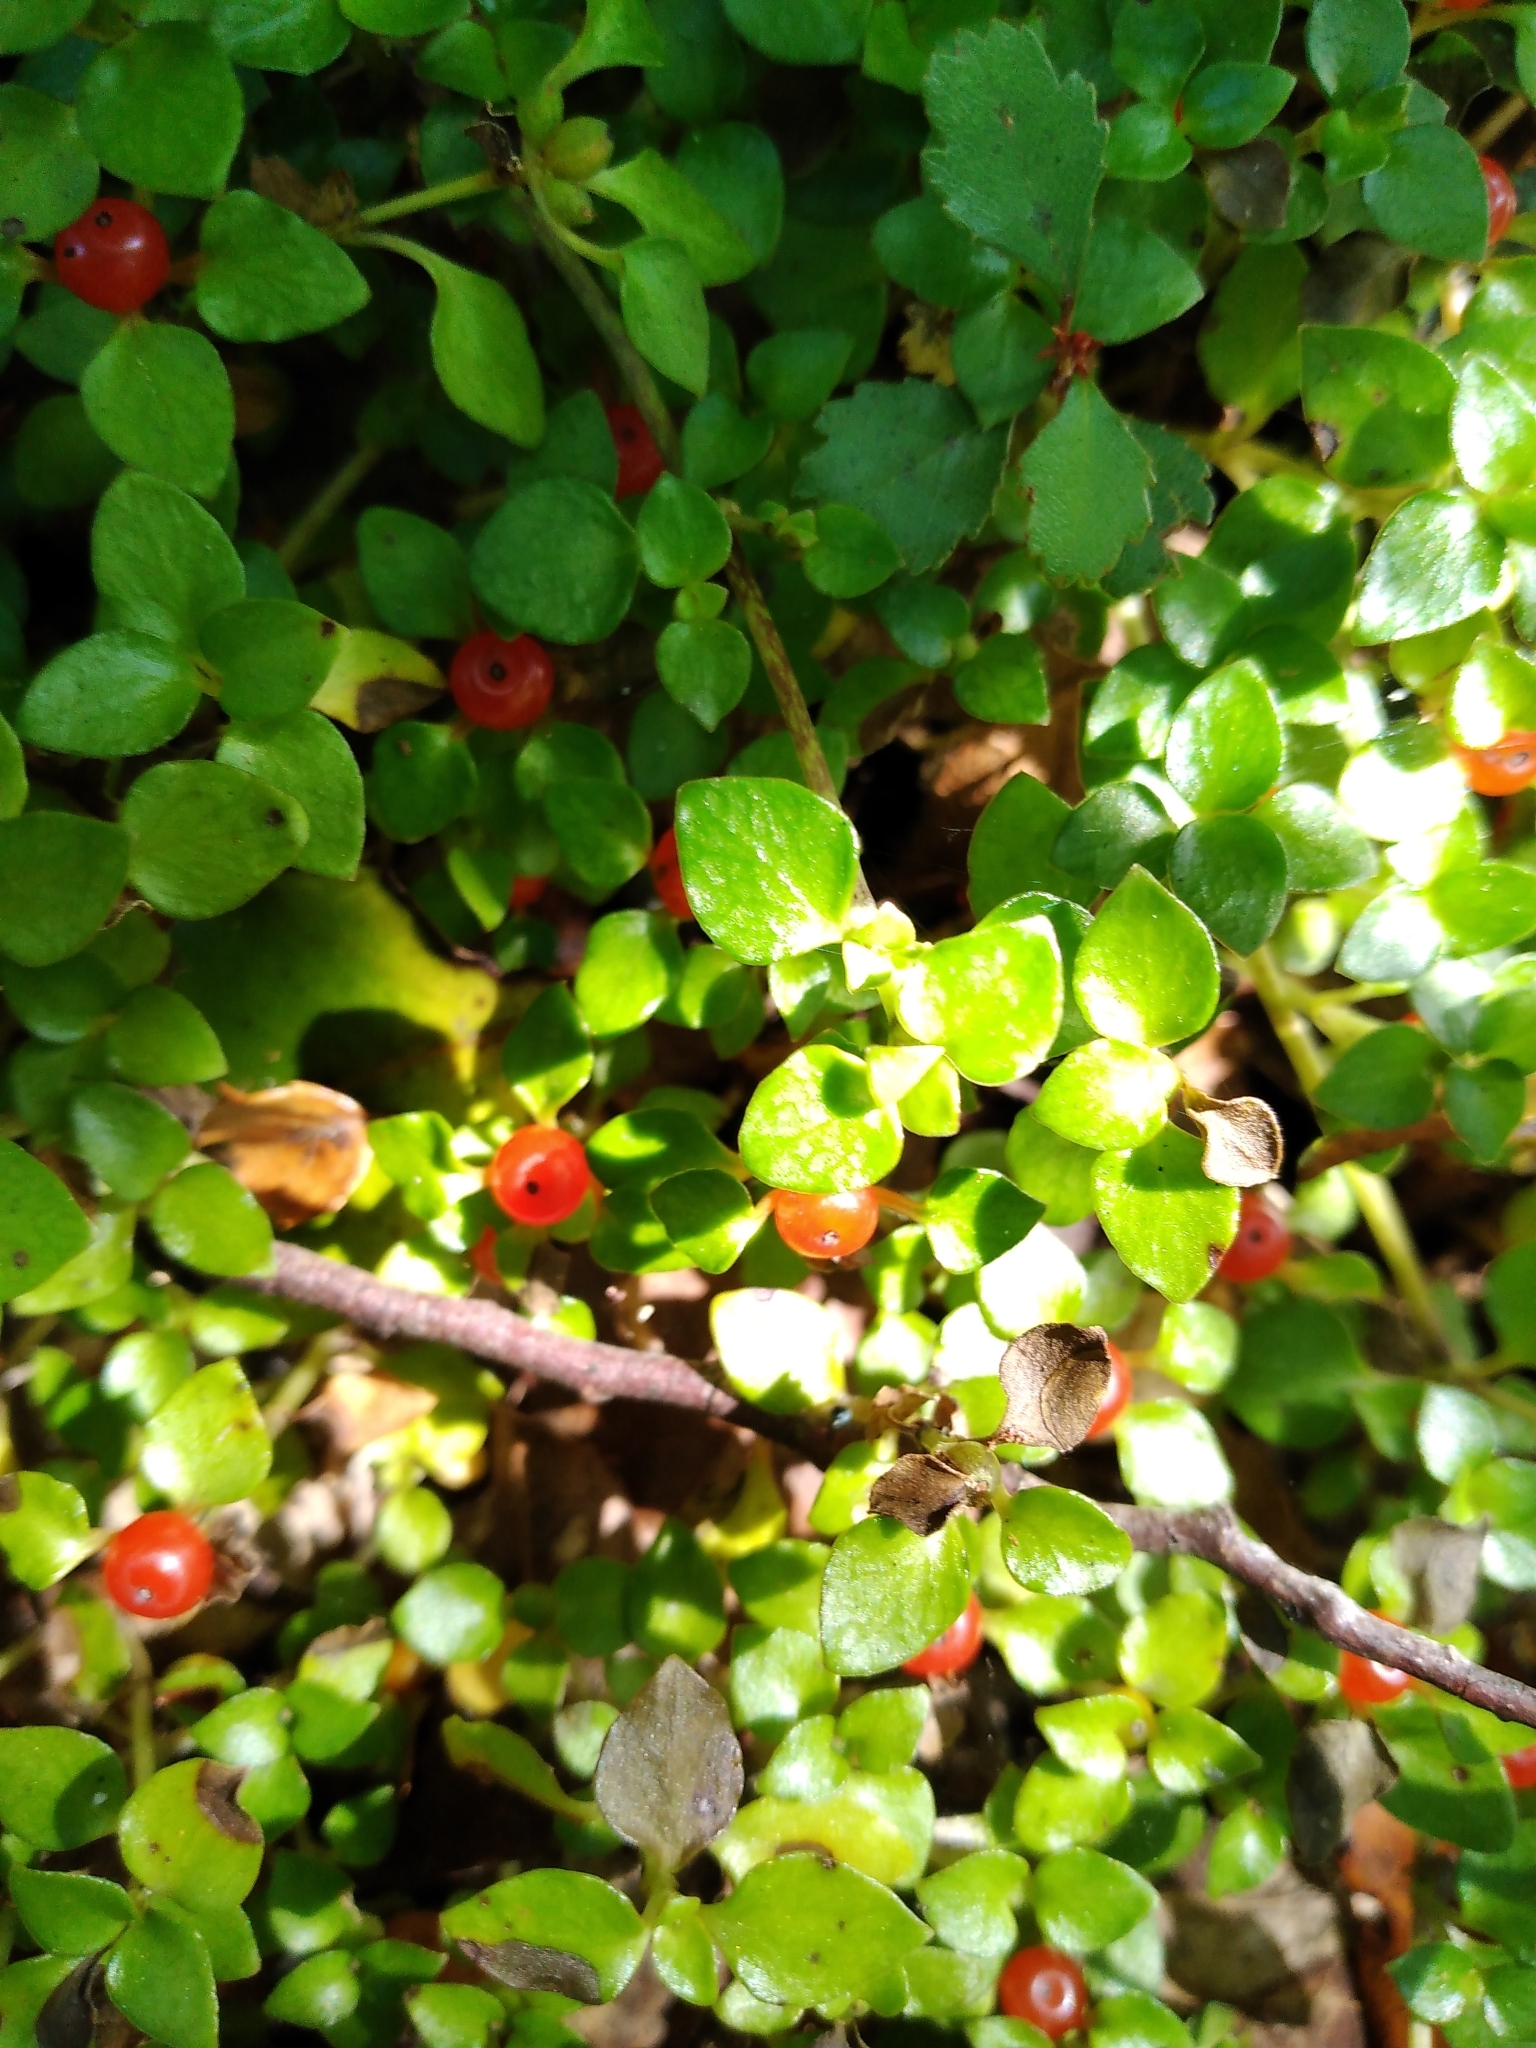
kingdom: Plantae
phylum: Tracheophyta
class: Magnoliopsida
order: Gentianales
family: Rubiaceae
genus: Nertera
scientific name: Nertera granadensis
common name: Beadplant
